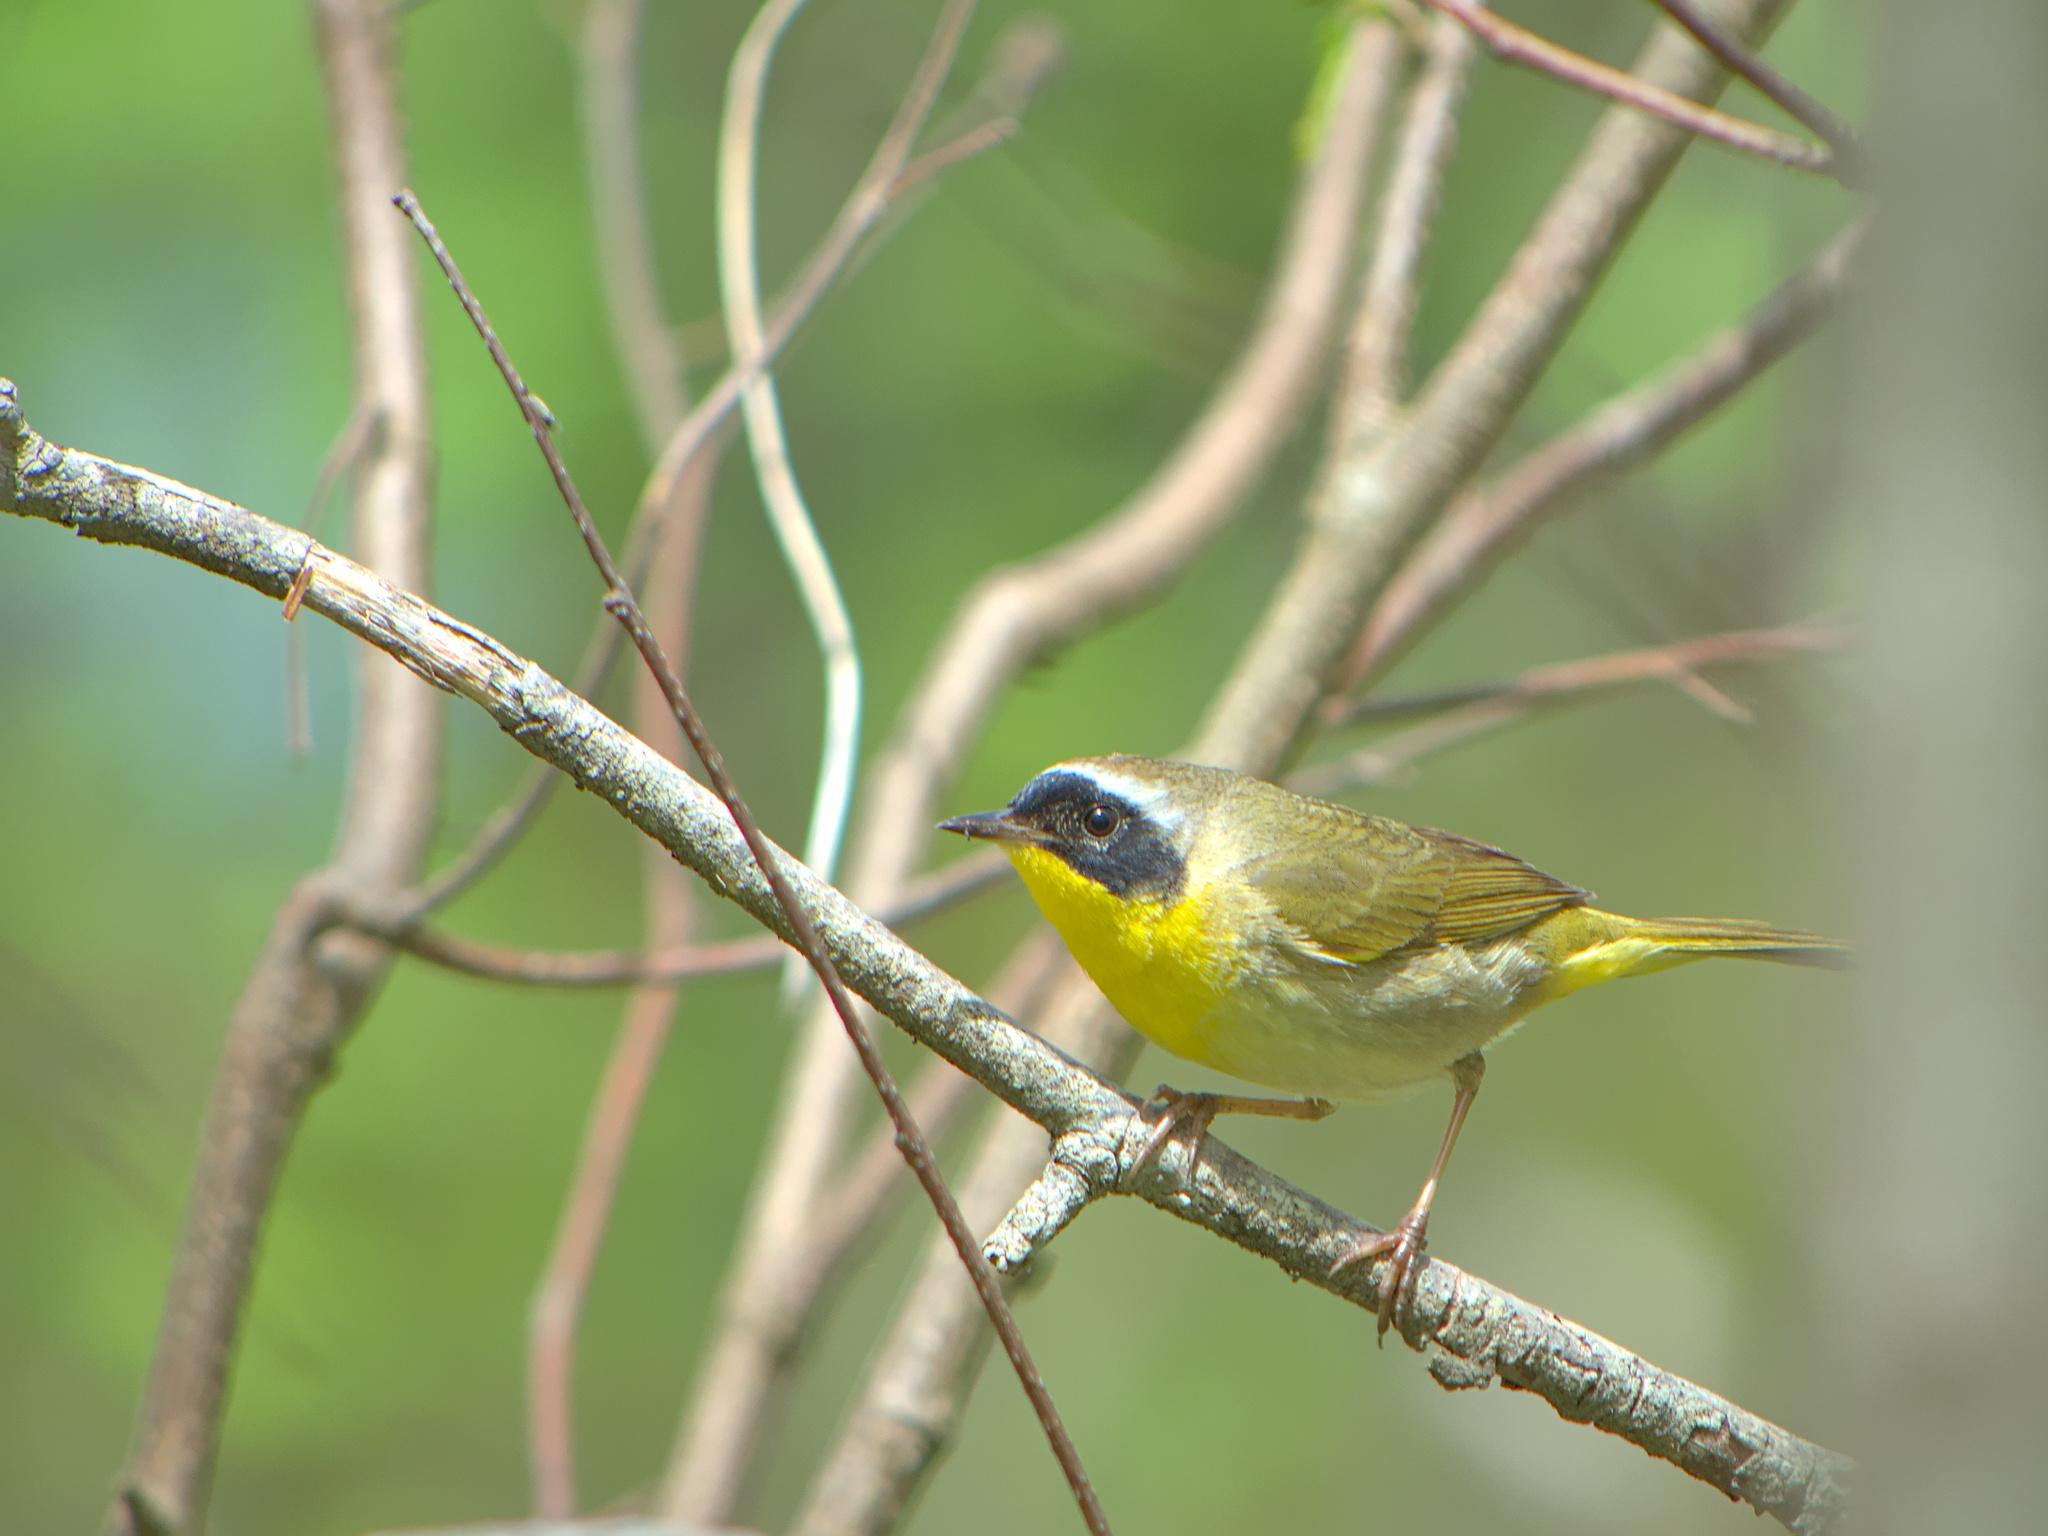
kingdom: Animalia
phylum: Chordata
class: Aves
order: Passeriformes
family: Parulidae
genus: Geothlypis
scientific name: Geothlypis trichas
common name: Common yellowthroat
